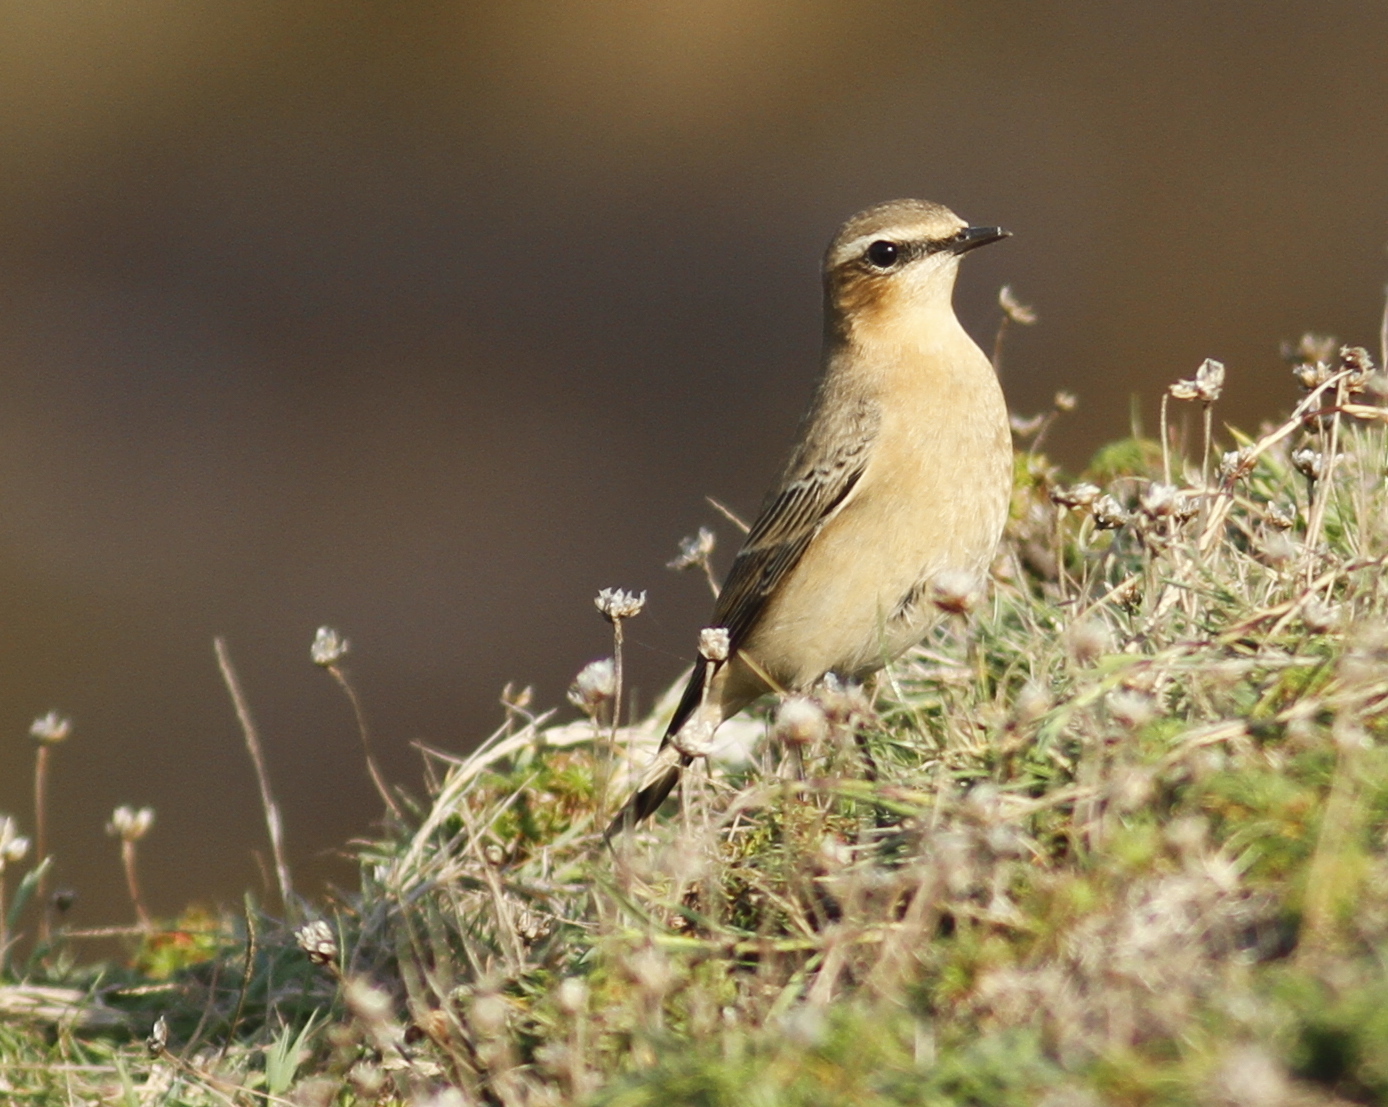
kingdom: Animalia
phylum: Chordata
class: Aves
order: Passeriformes
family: Muscicapidae
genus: Oenanthe
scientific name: Oenanthe oenanthe
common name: Northern wheatear
